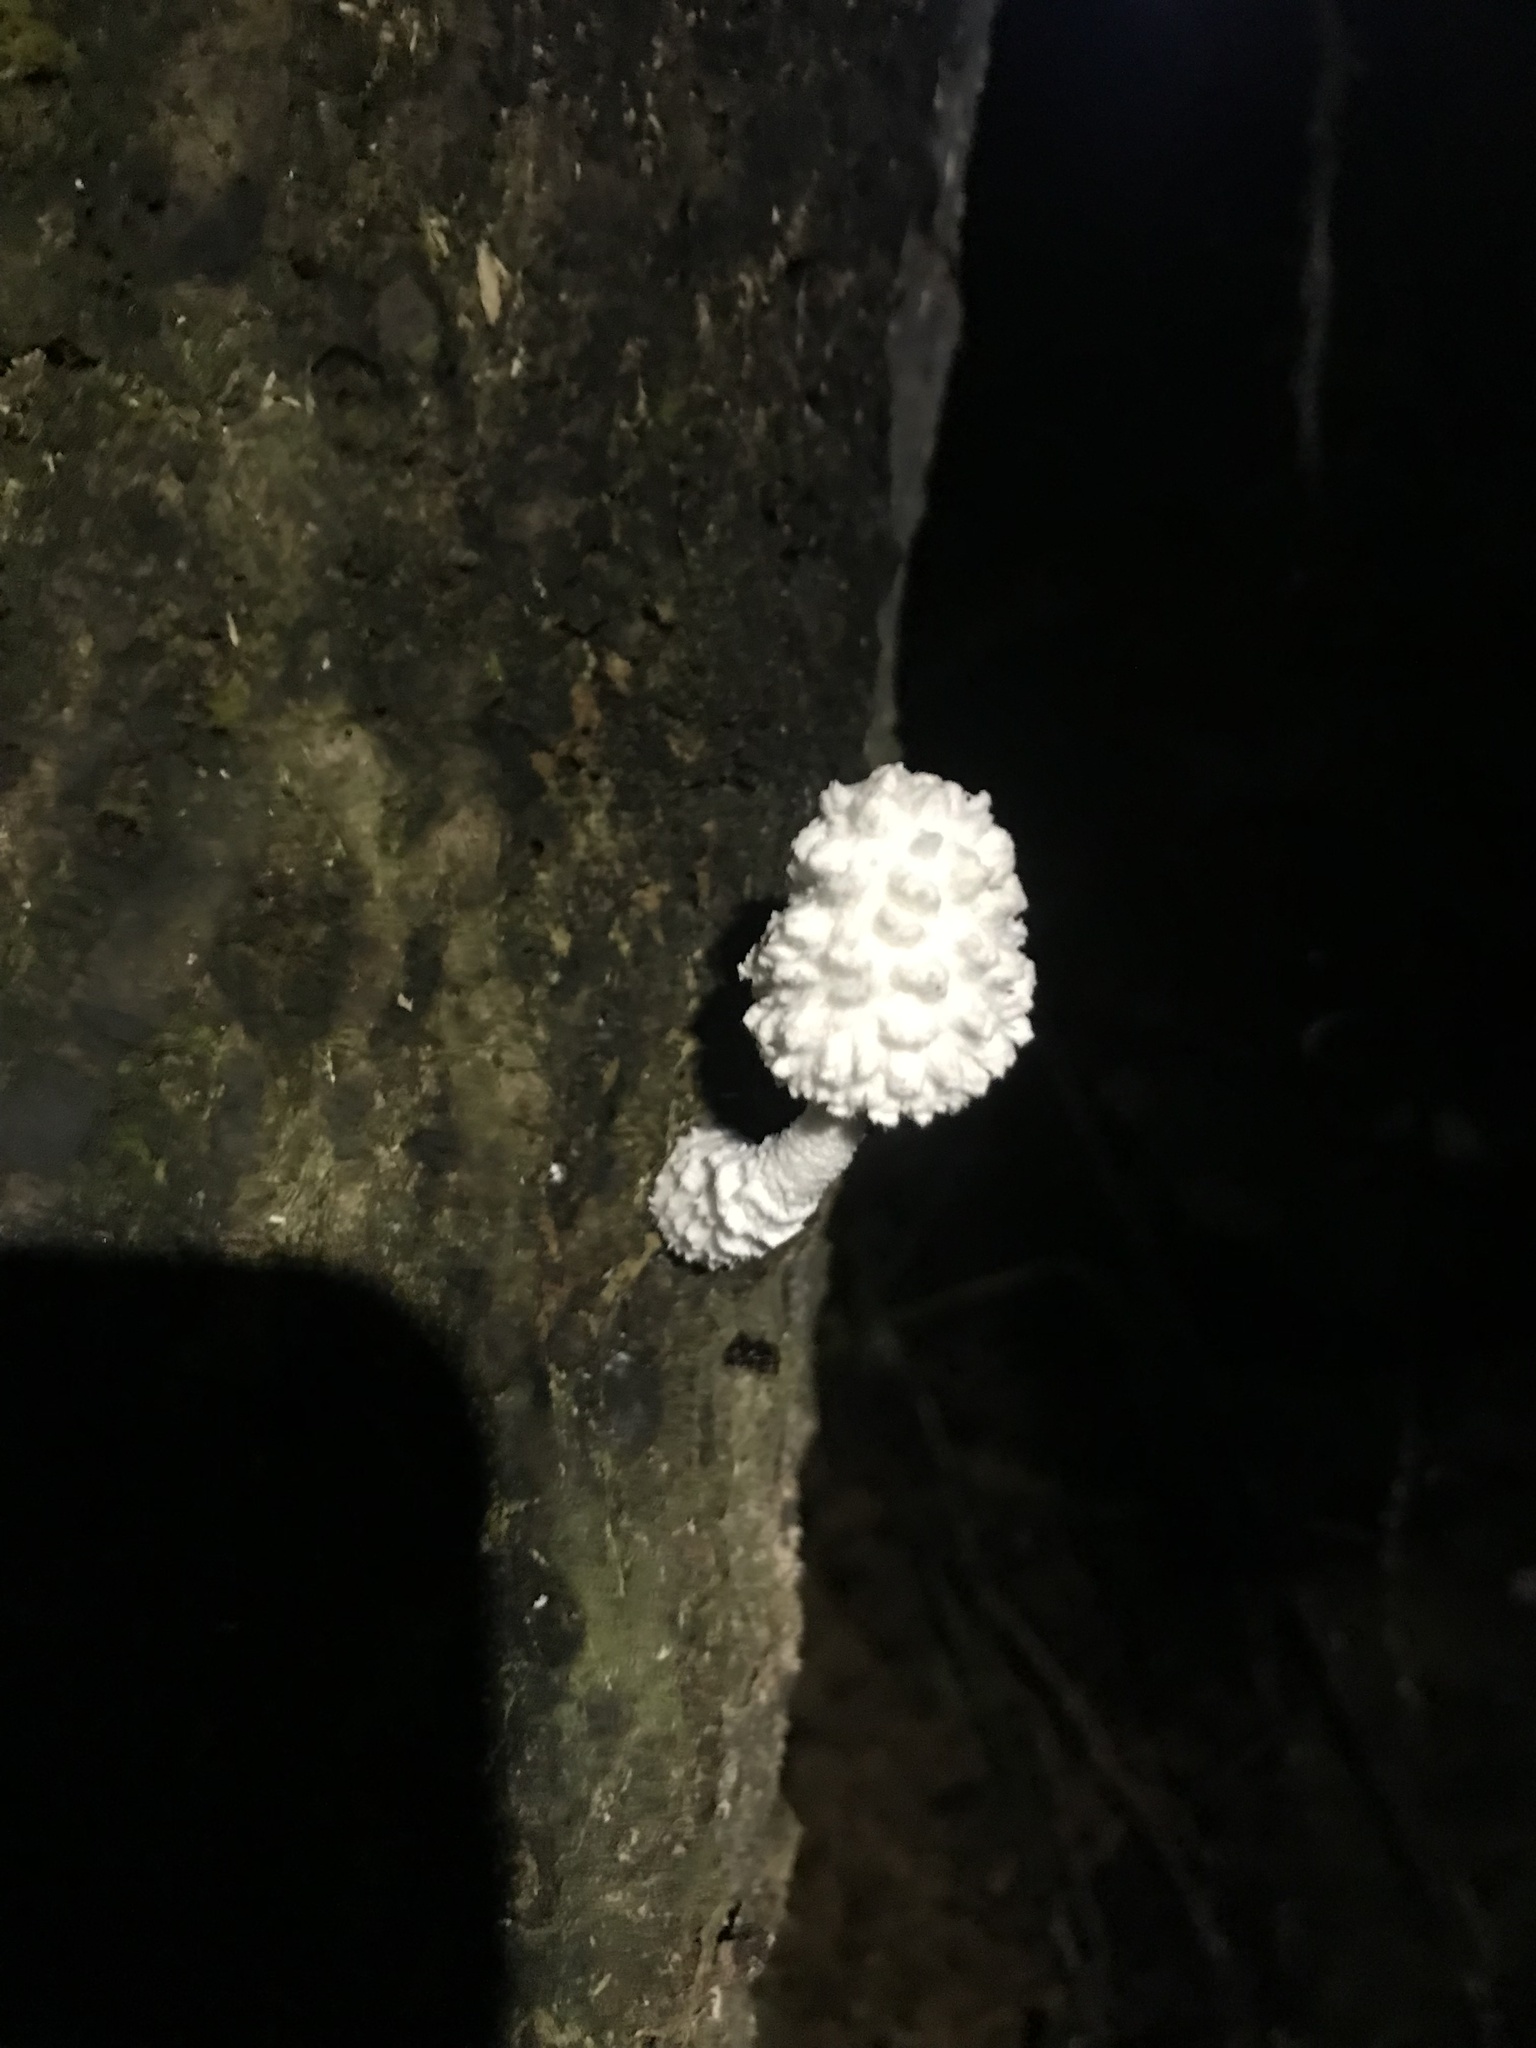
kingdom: Fungi
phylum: Basidiomycota
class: Agaricomycetes
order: Agaricales
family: Agaricaceae
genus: Leucocoprinus
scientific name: Leucocoprinus cretaceus
